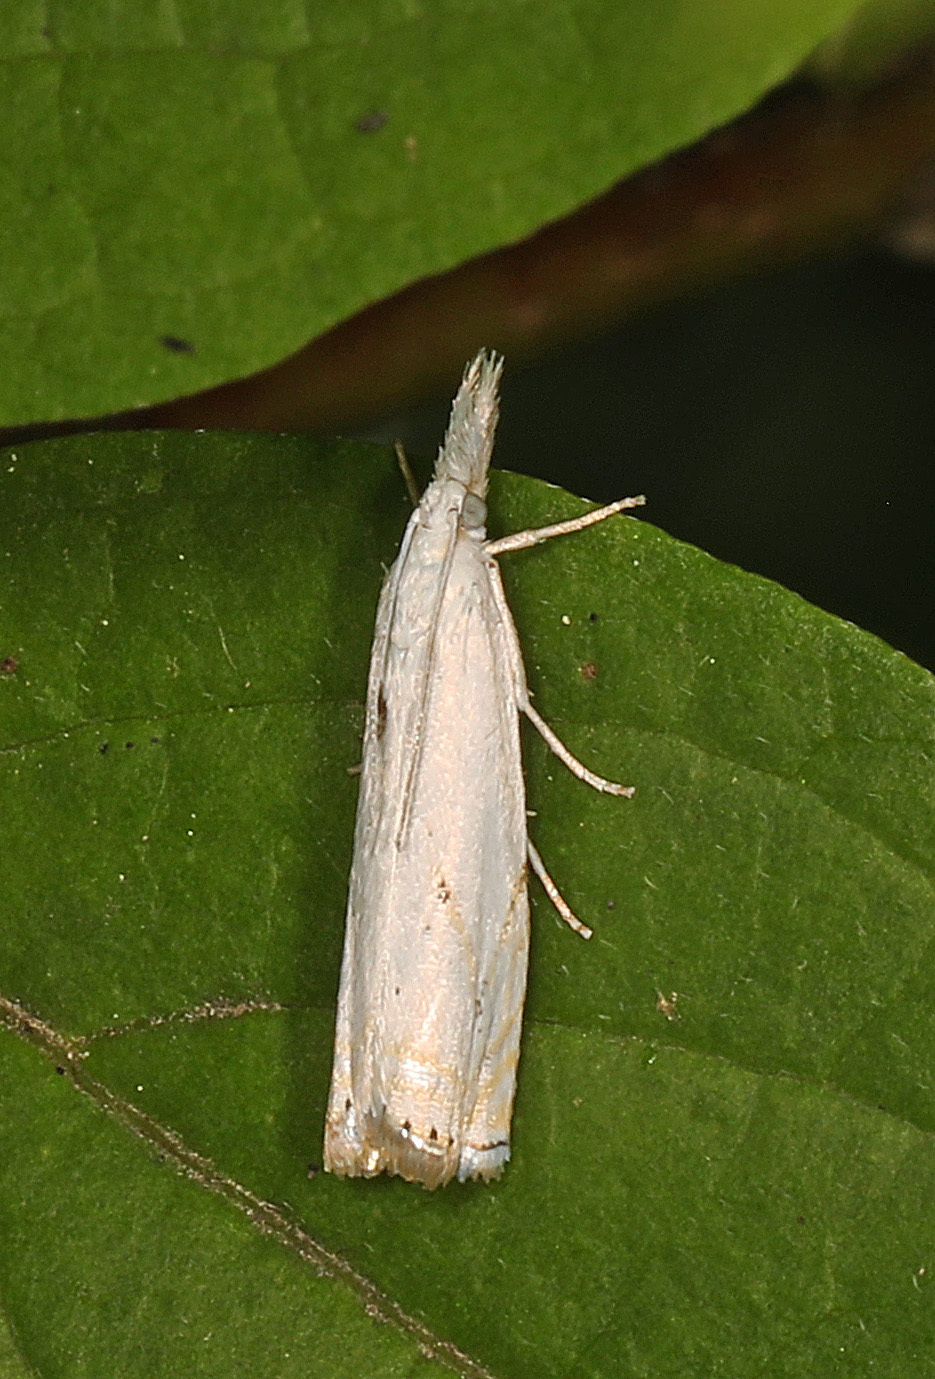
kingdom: Animalia
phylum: Arthropoda
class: Insecta
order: Lepidoptera
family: Crambidae
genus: Crambus
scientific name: Crambus albellus
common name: Small white grass-veneer
